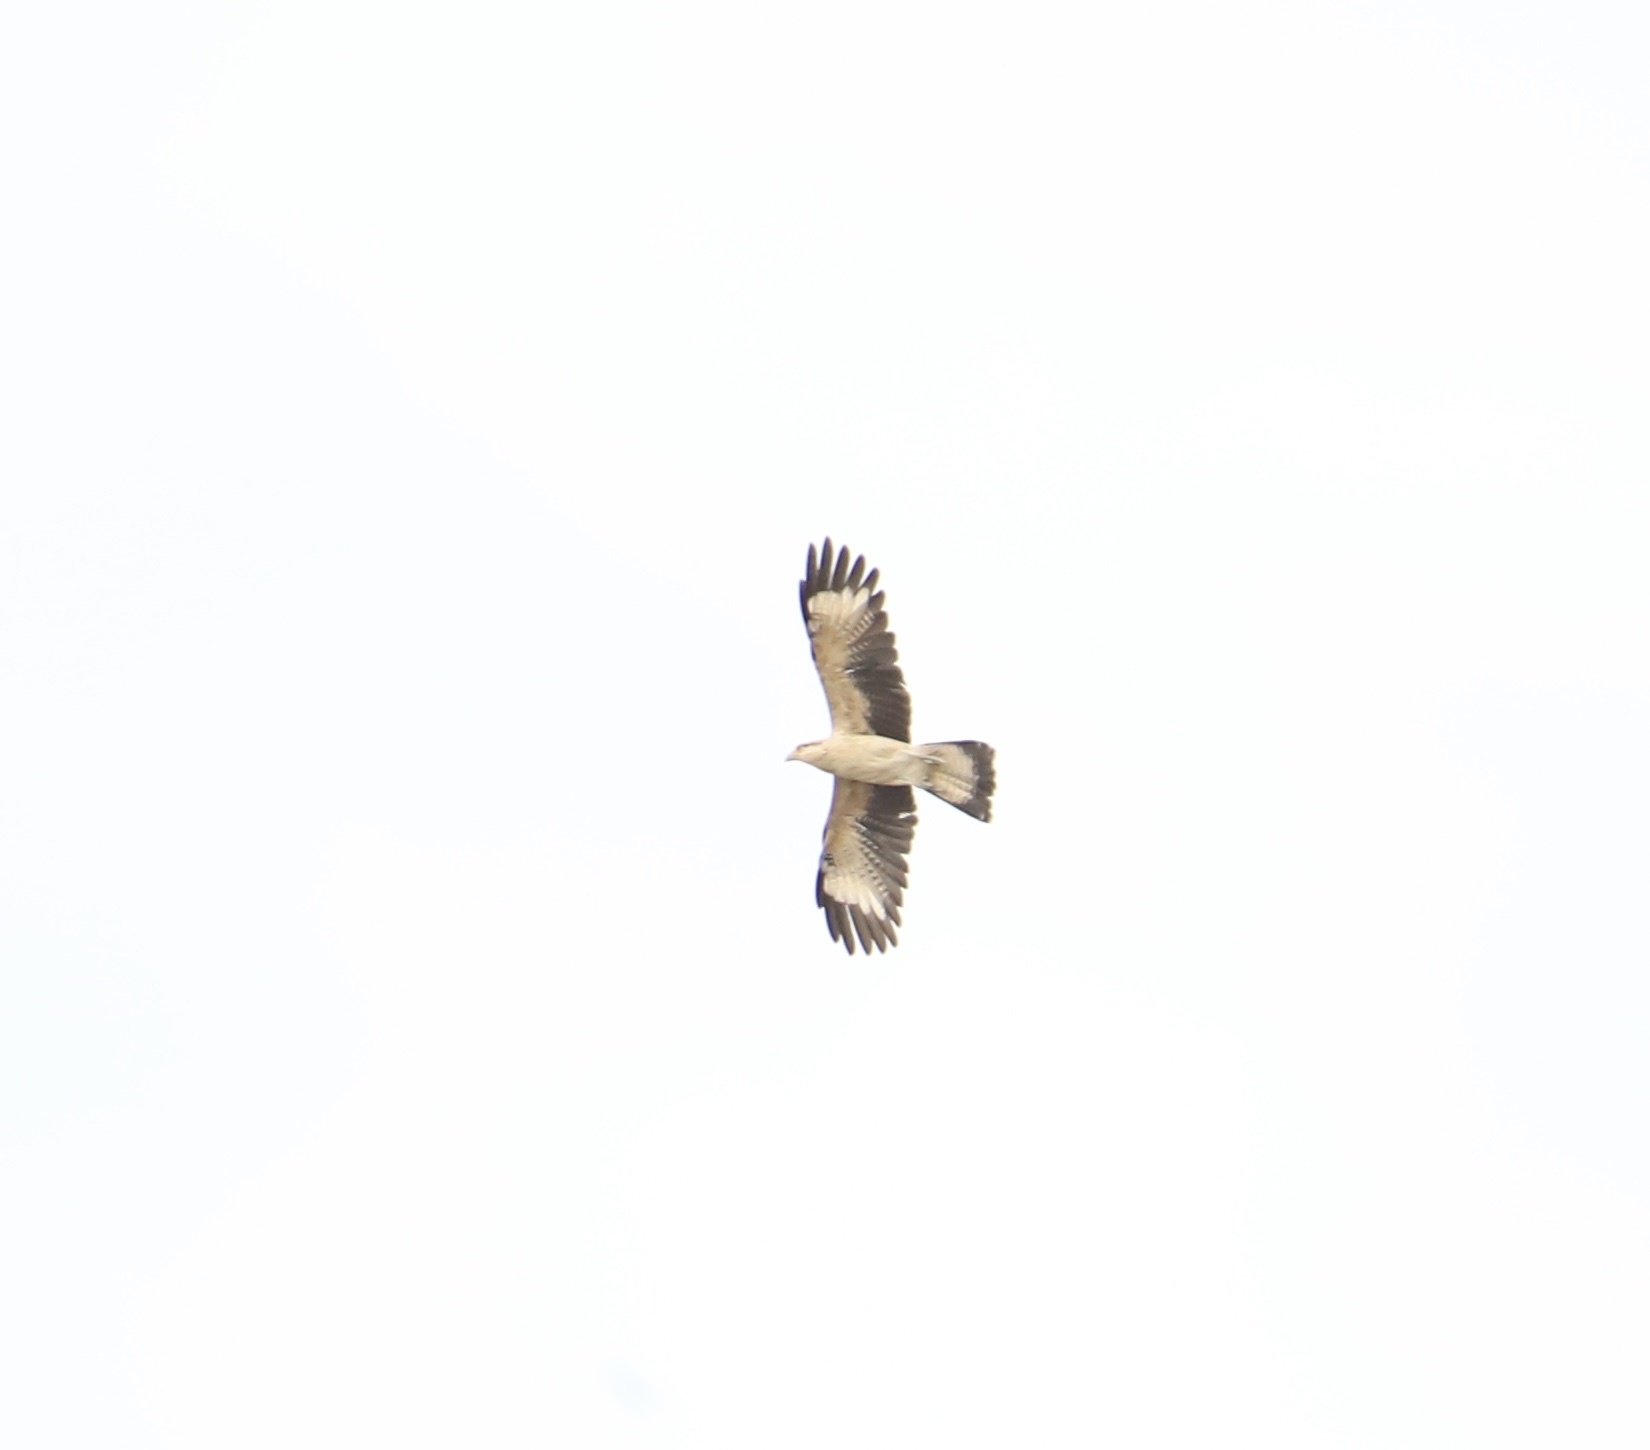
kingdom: Animalia
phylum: Chordata
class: Aves
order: Falconiformes
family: Falconidae
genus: Daptrius
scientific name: Daptrius
